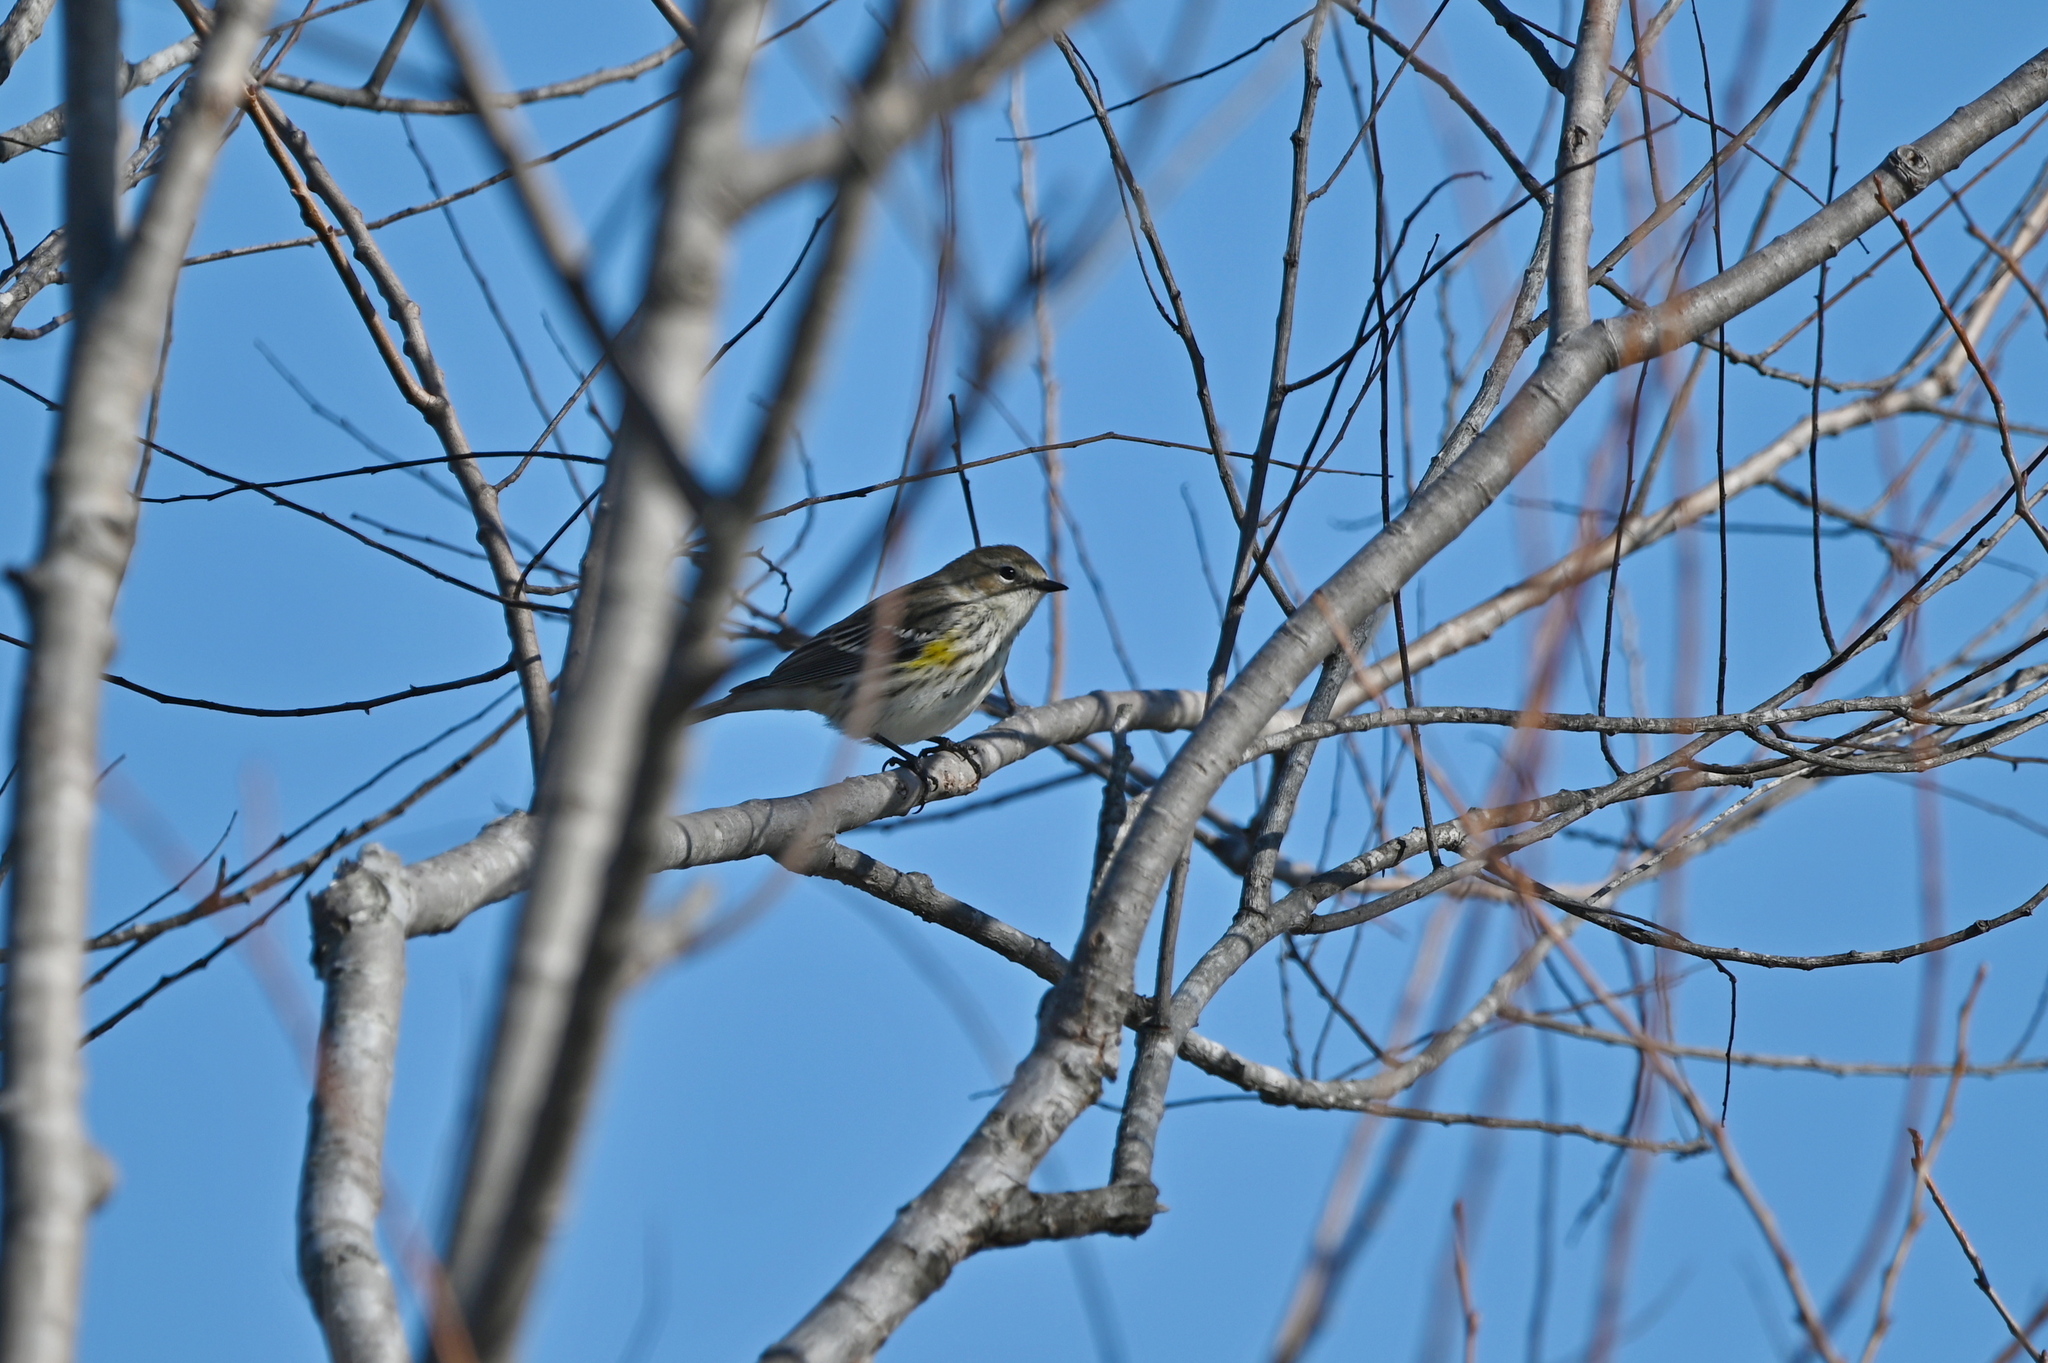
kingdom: Animalia
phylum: Chordata
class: Aves
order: Passeriformes
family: Parulidae
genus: Setophaga
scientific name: Setophaga coronata
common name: Myrtle warbler
